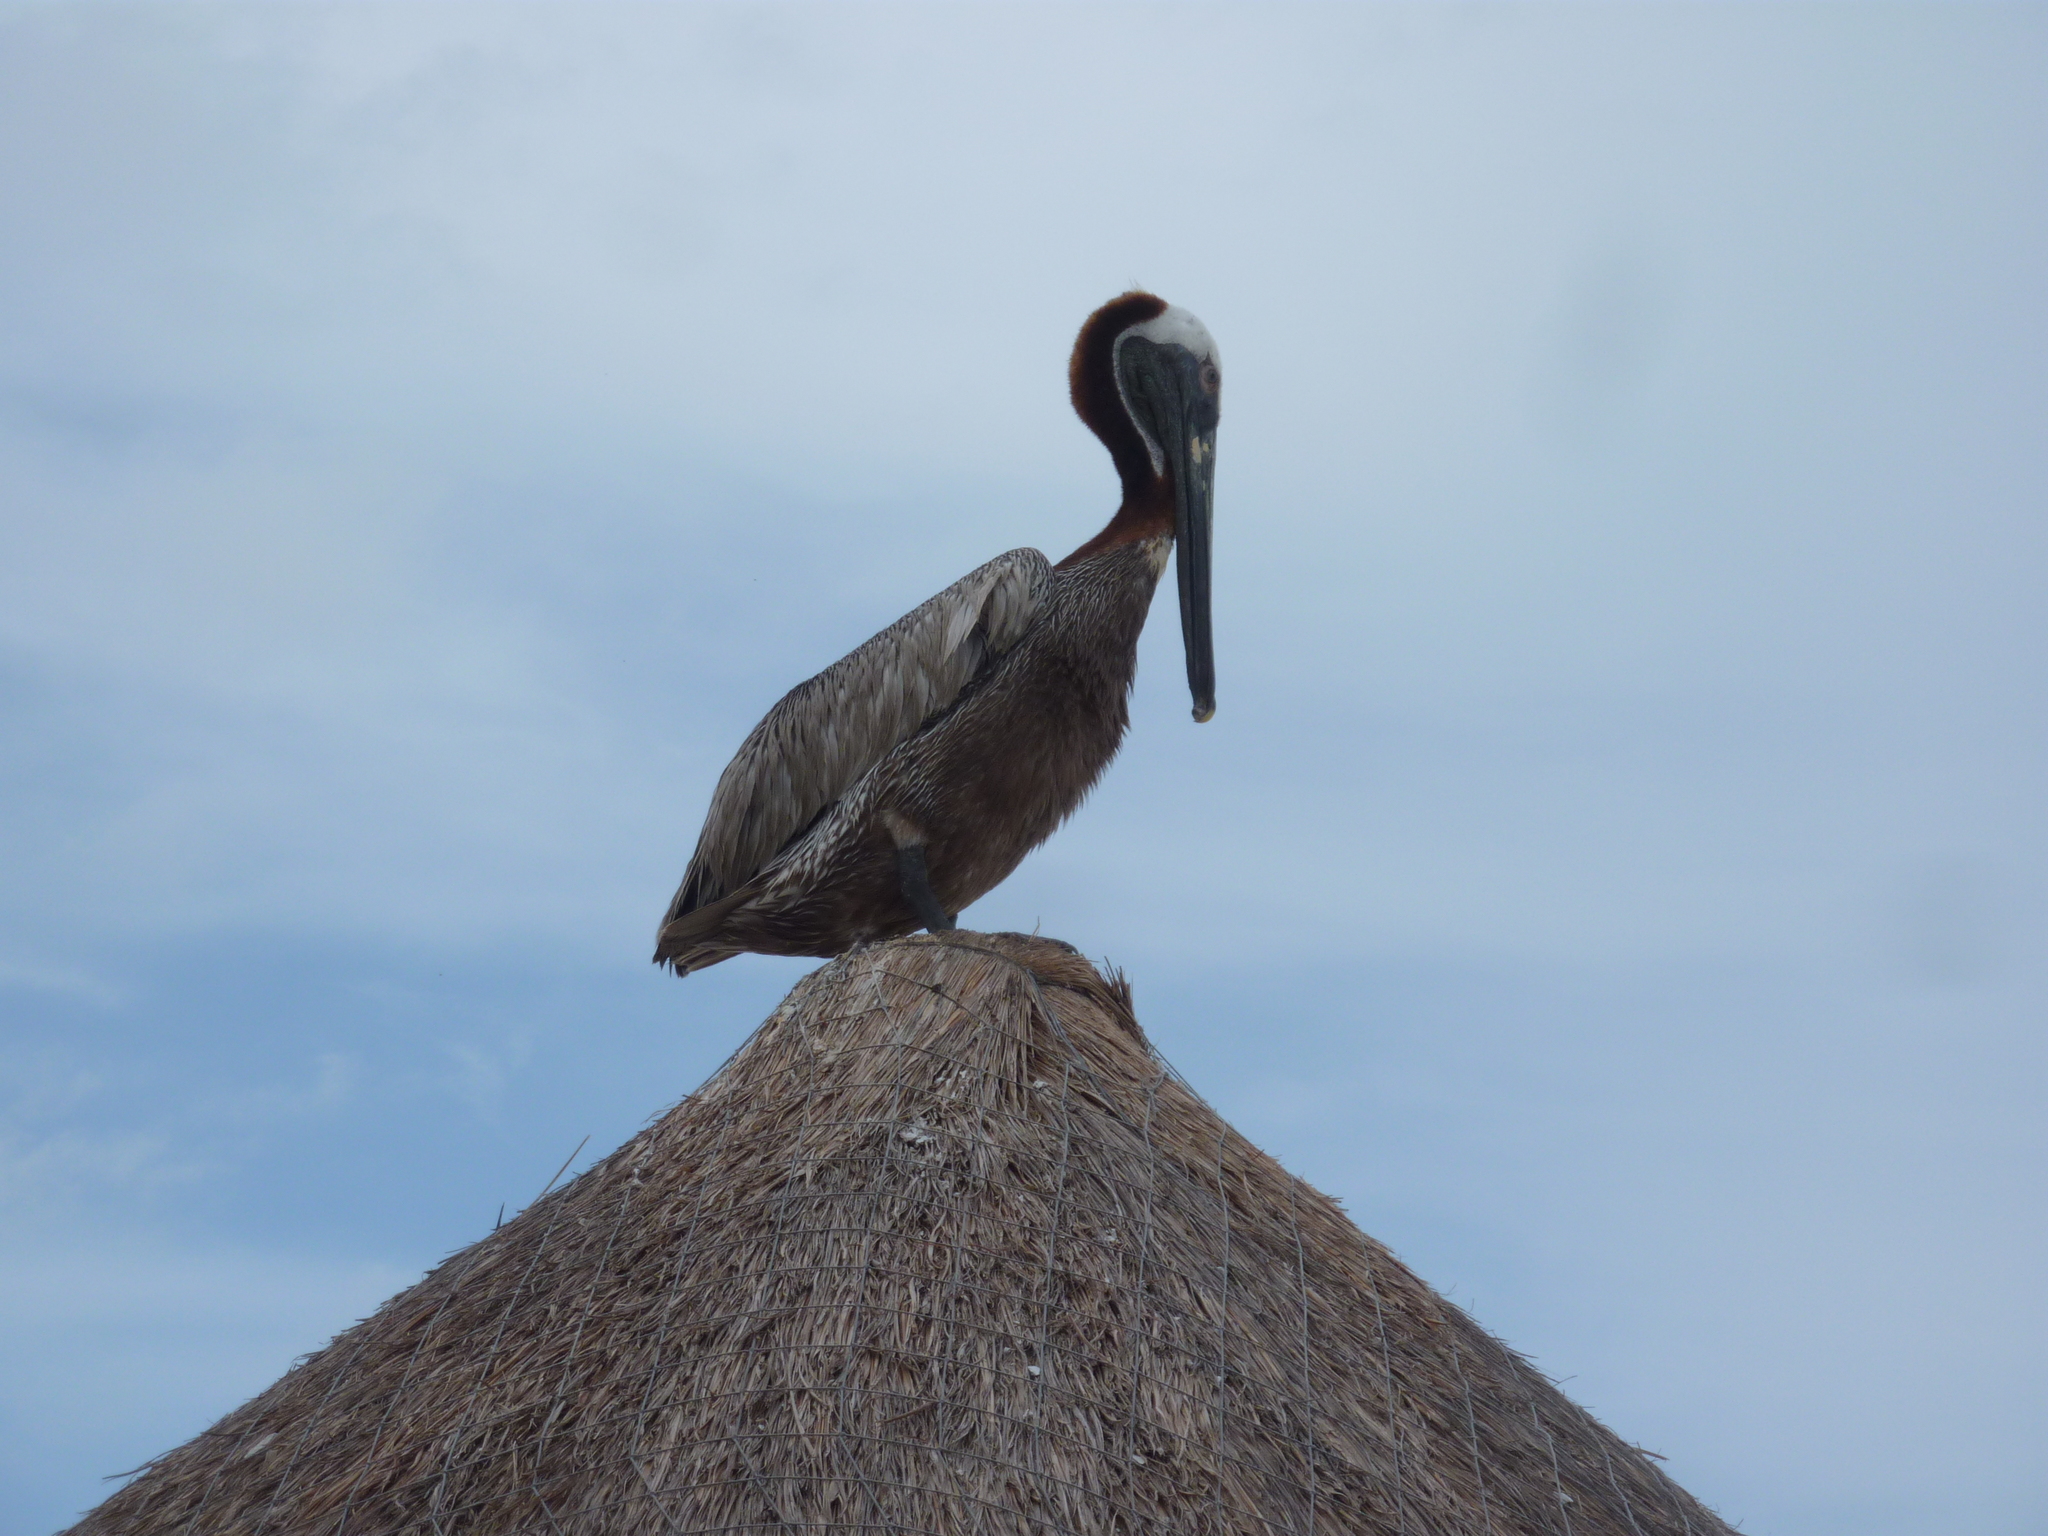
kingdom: Animalia
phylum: Chordata
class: Aves
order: Pelecaniformes
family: Pelecanidae
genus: Pelecanus
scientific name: Pelecanus occidentalis
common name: Brown pelican
